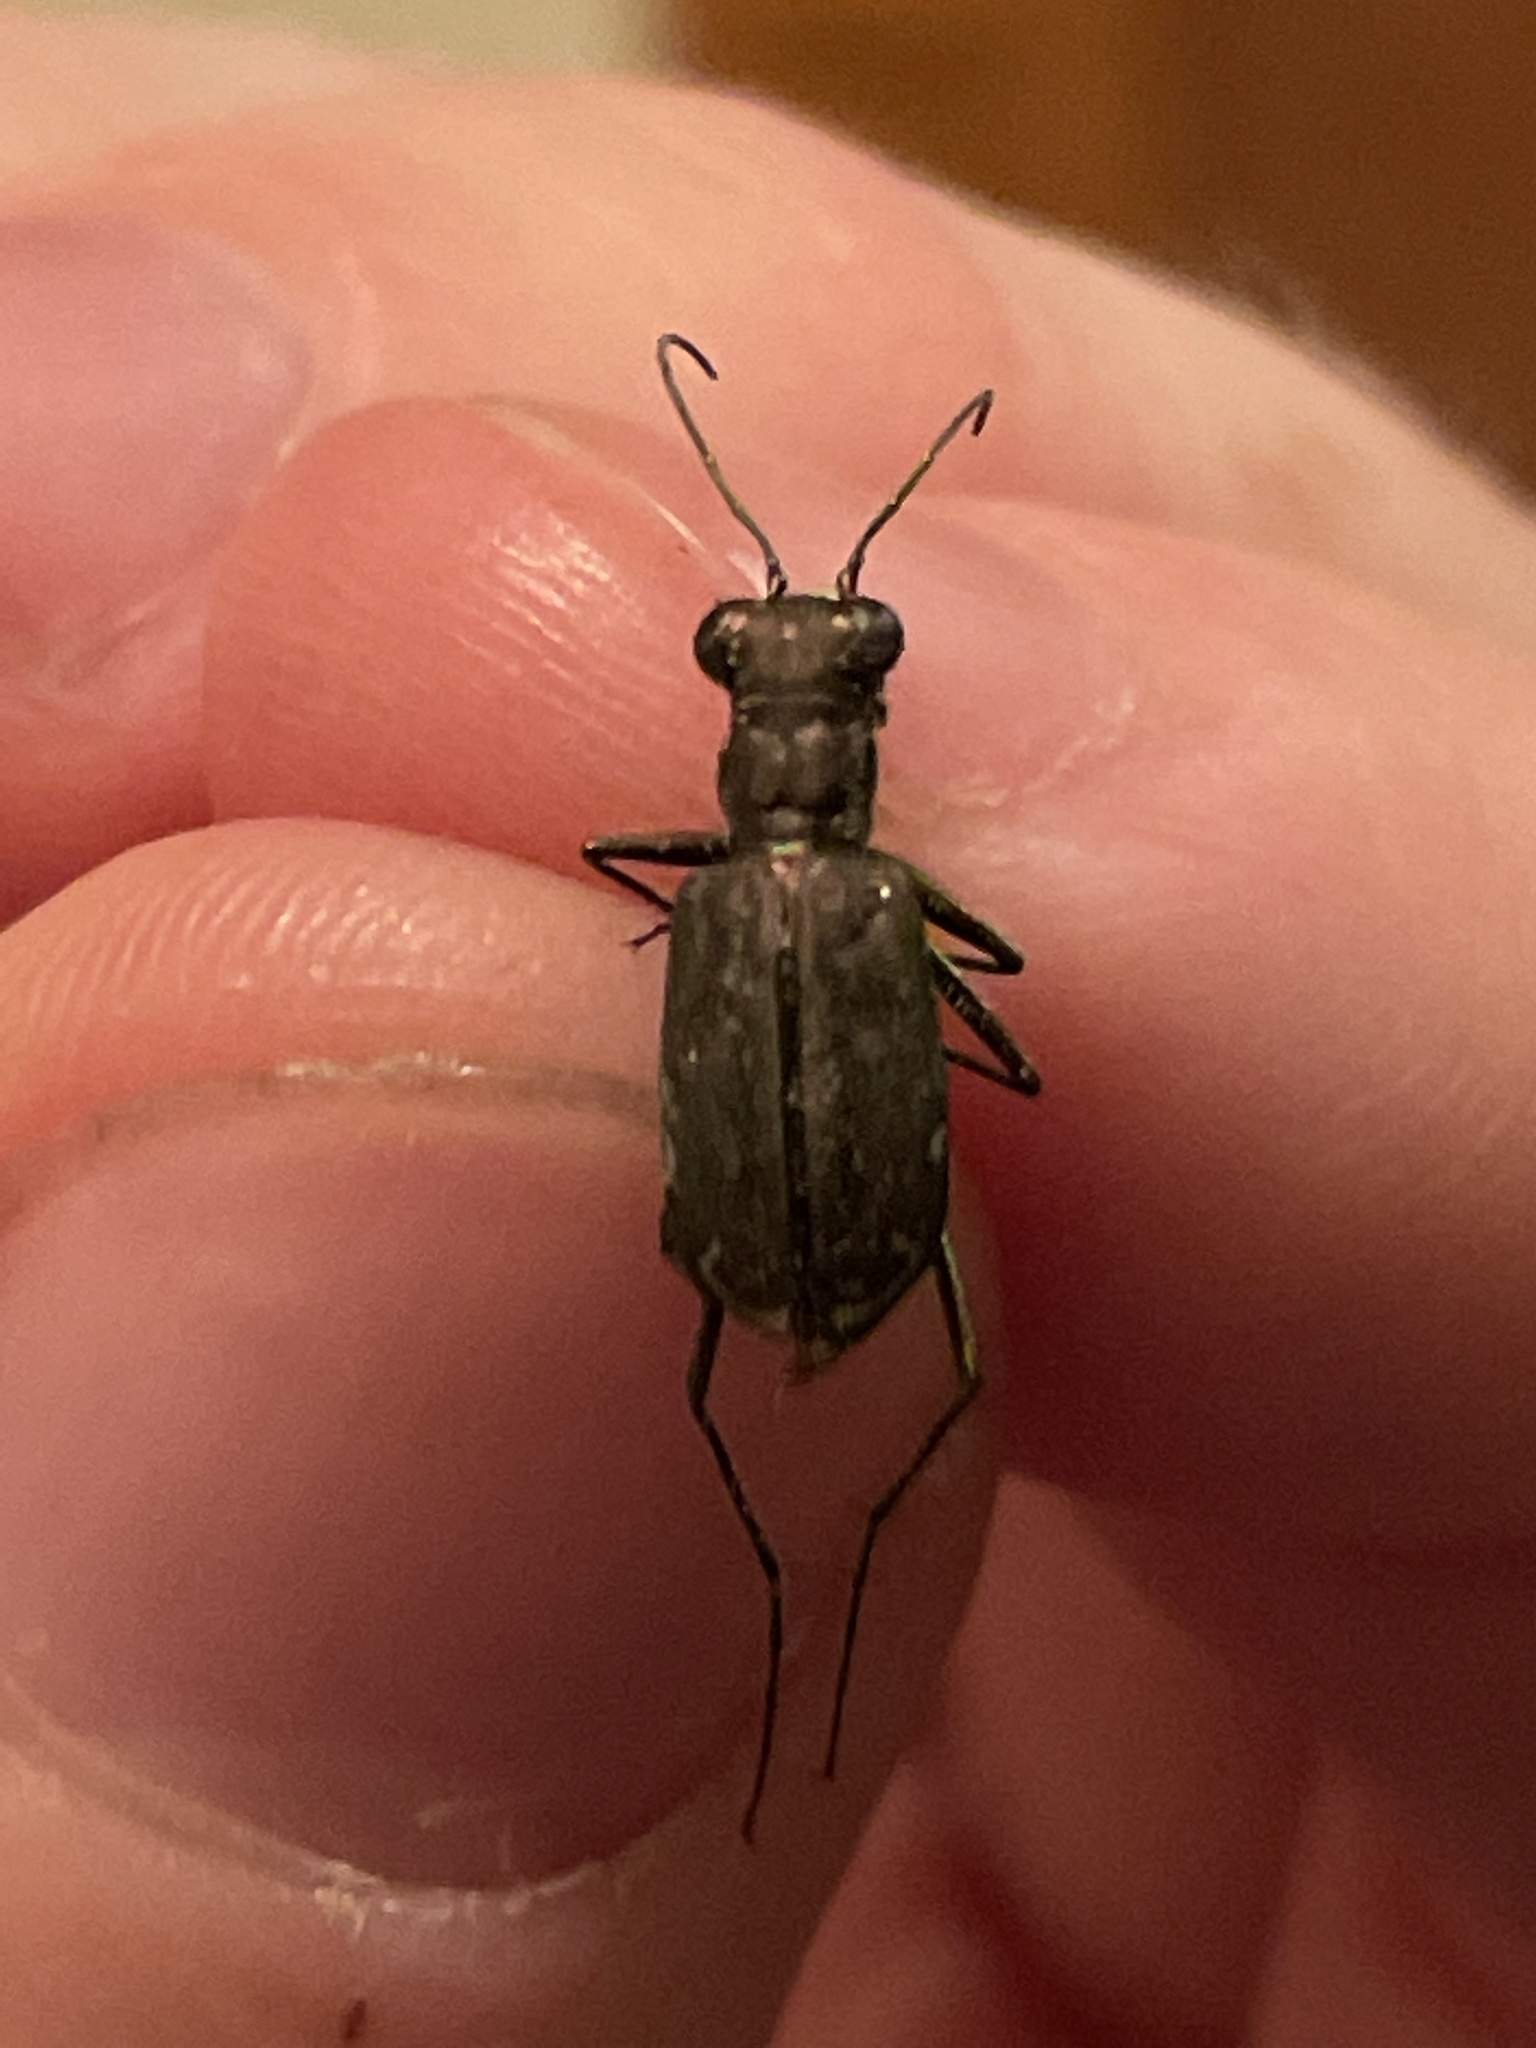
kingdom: Animalia
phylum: Arthropoda
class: Insecta
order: Coleoptera
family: Carabidae
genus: Cicindela
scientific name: Cicindela punctulata
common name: Punctured tiger beetle
